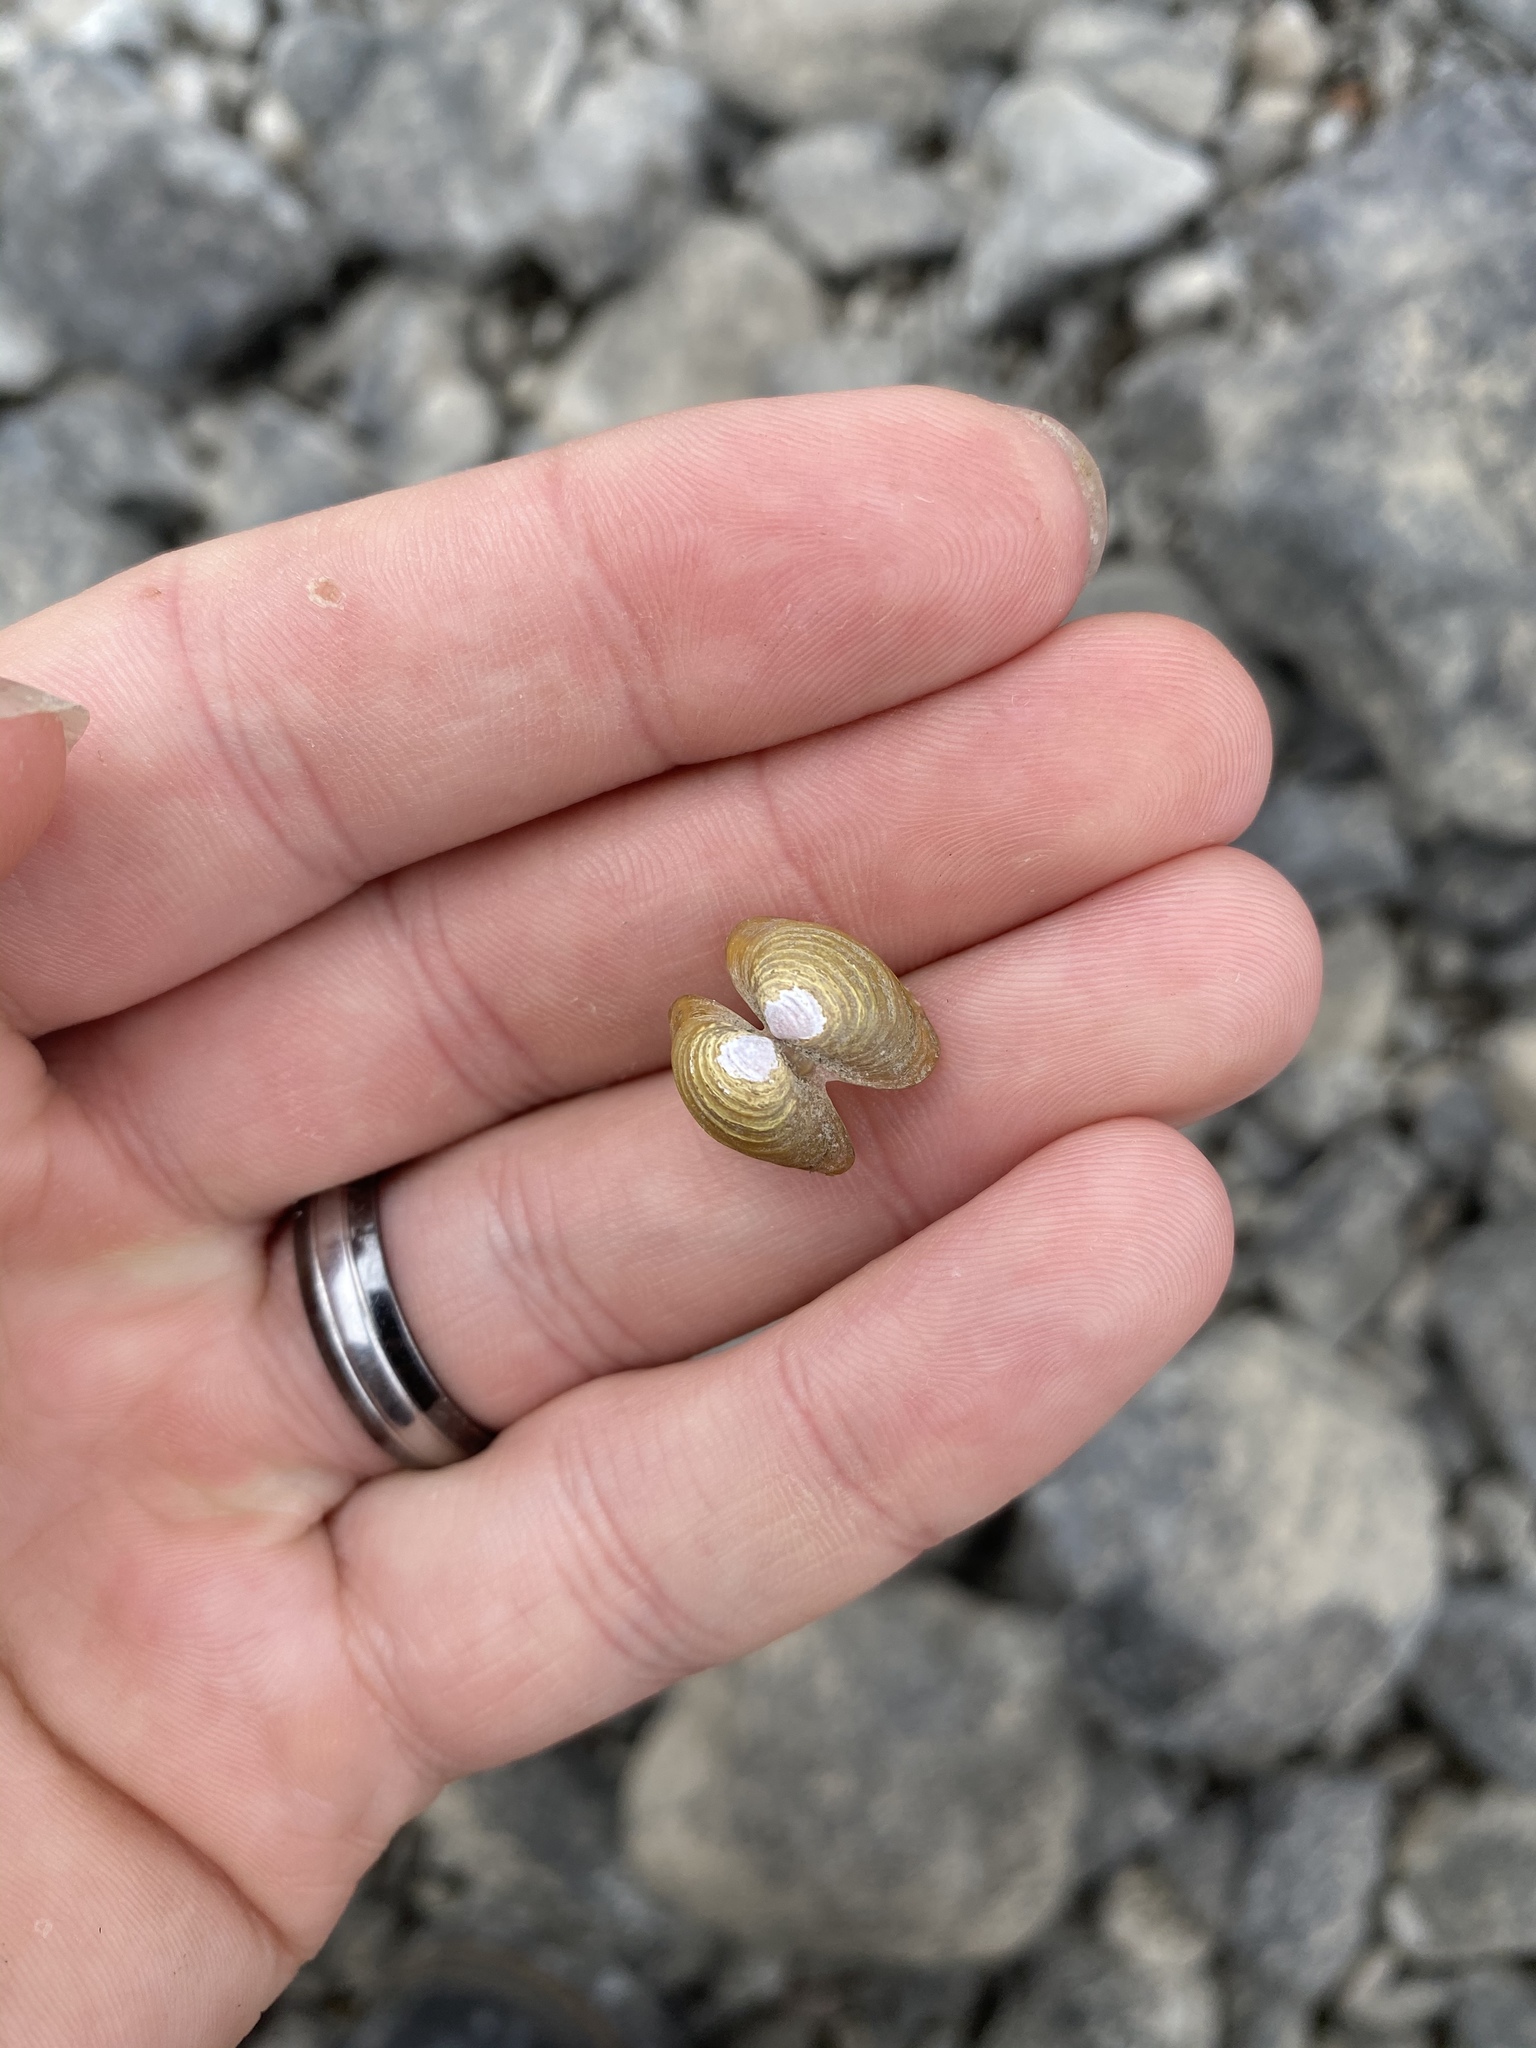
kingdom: Animalia
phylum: Mollusca
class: Bivalvia
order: Venerida
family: Cyrenidae
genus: Corbicula
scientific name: Corbicula fluminea
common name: Asian clam
